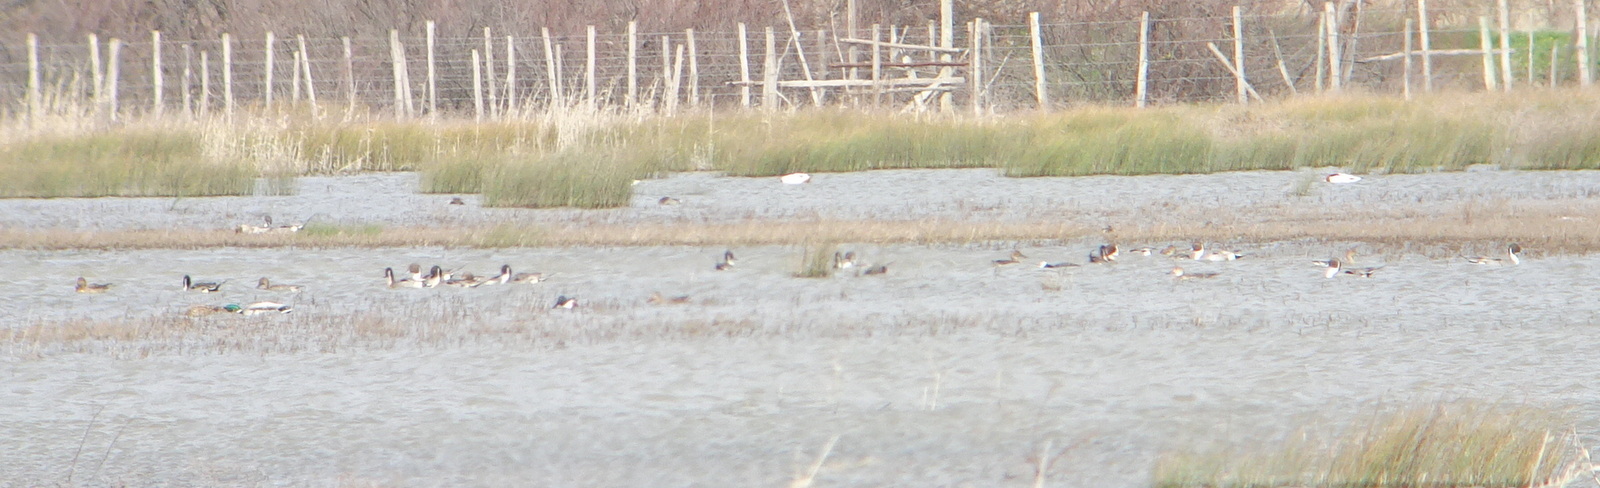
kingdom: Animalia
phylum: Chordata
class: Aves
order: Anseriformes
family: Anatidae
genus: Anas
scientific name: Anas acuta
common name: Northern pintail
